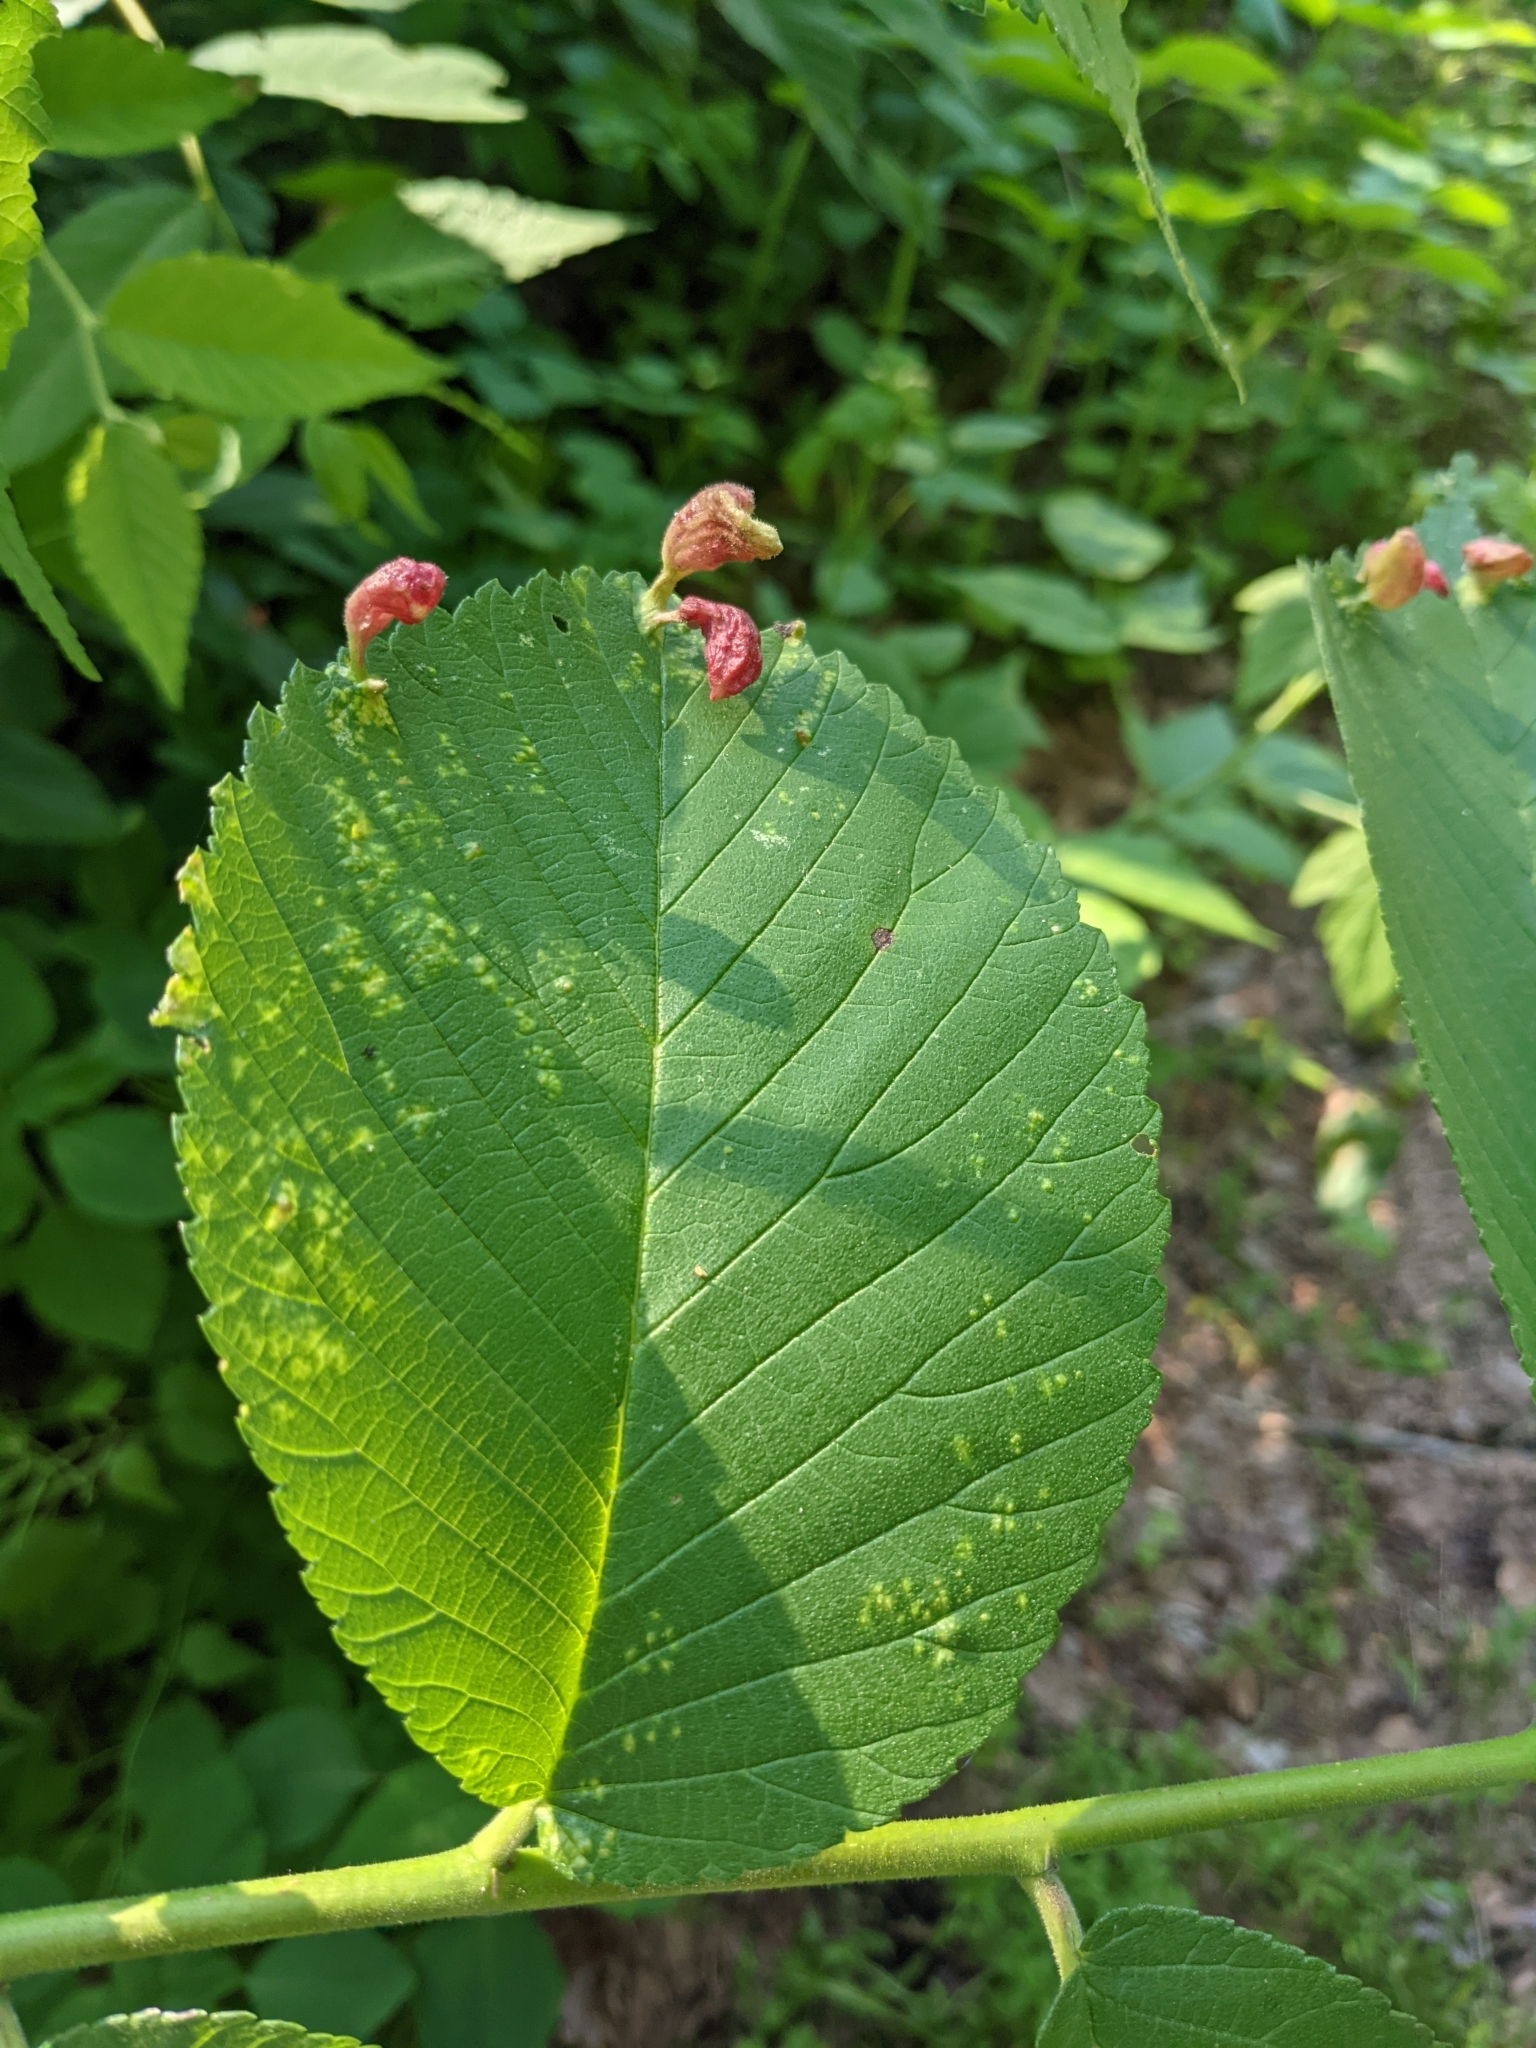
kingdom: Animalia
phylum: Arthropoda
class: Insecta
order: Hemiptera
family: Aphididae
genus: Tetraneura
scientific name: Tetraneura nigriabdominalis
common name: Aphid
